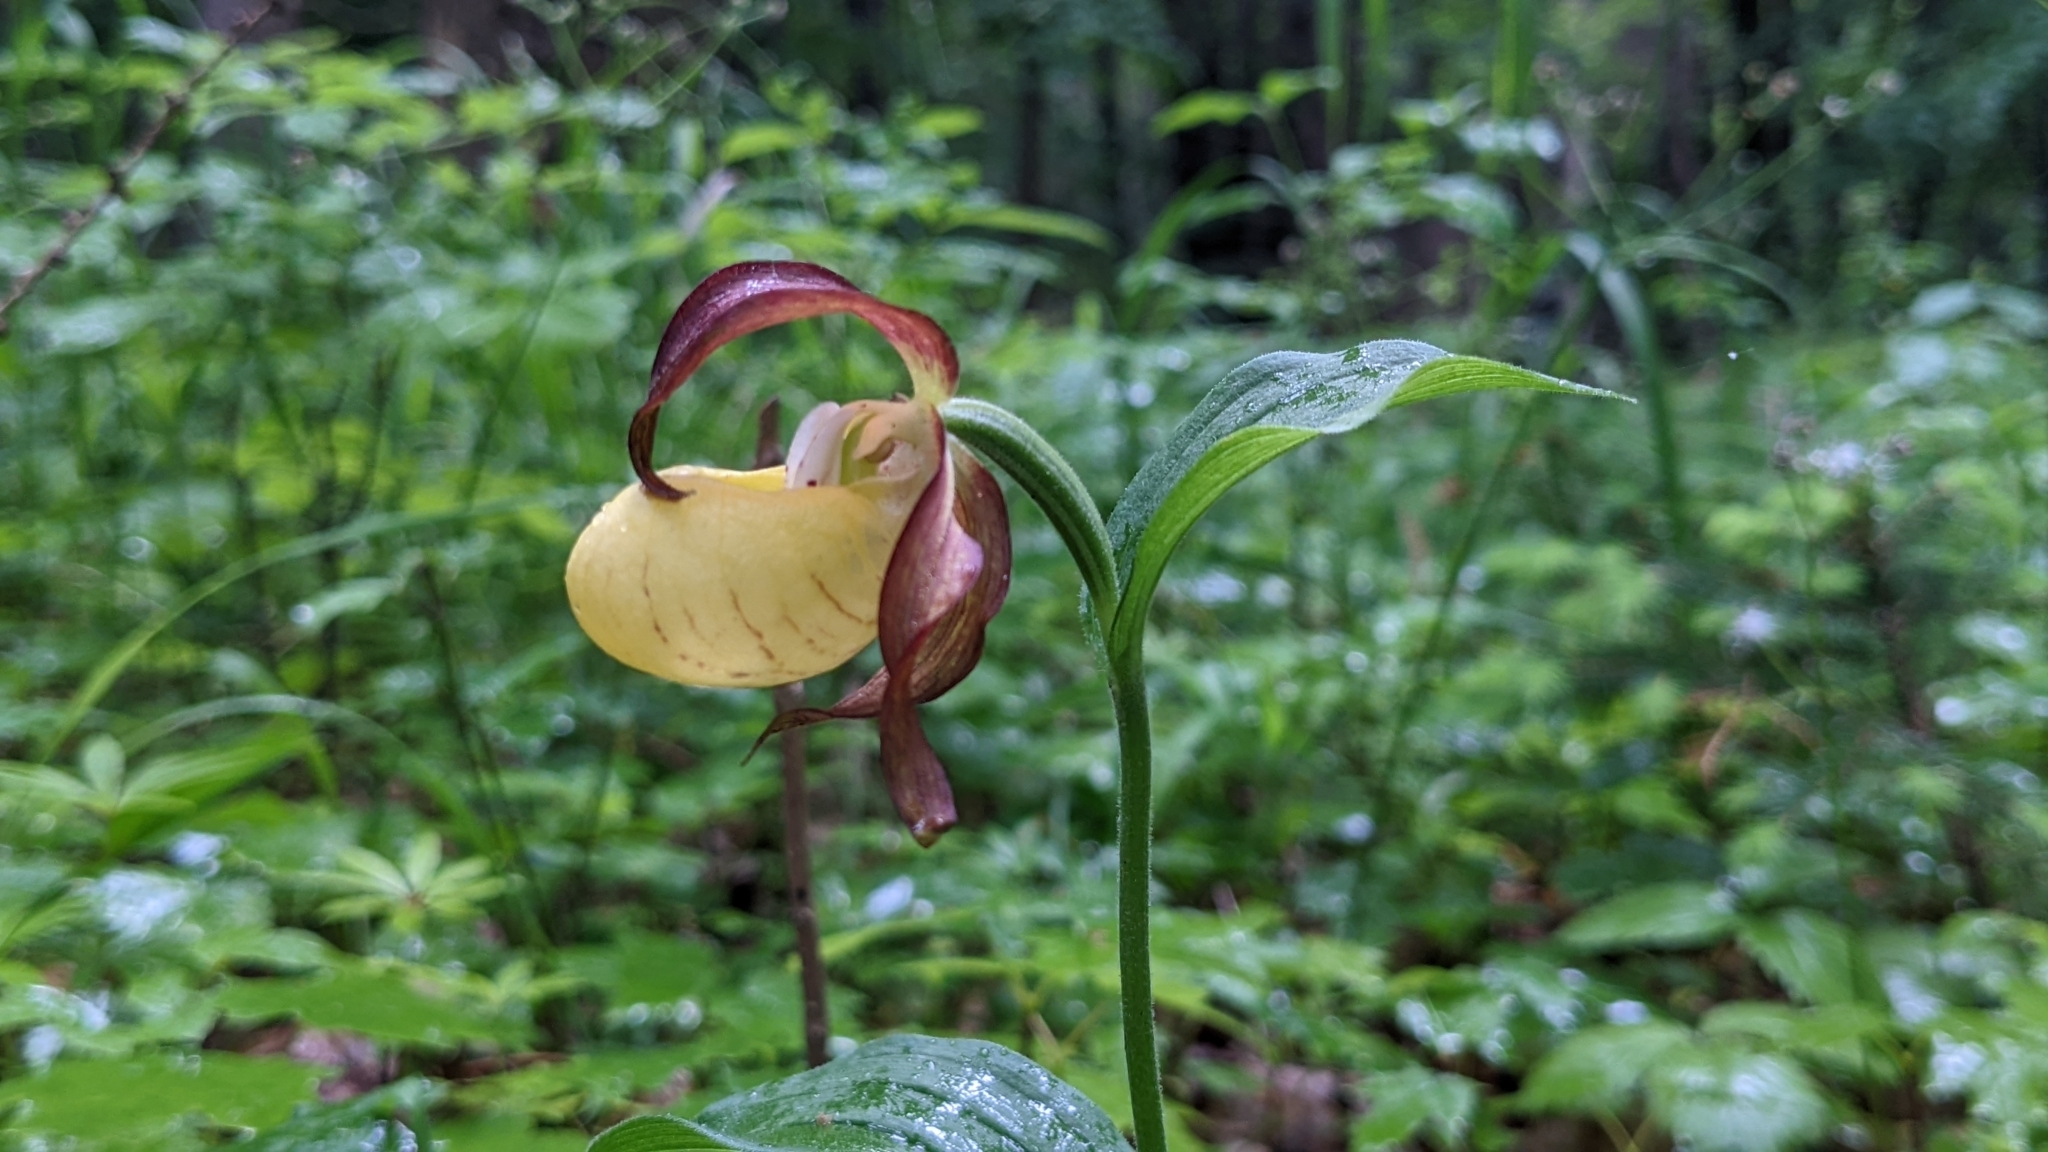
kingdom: Plantae
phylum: Tracheophyta
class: Liliopsida
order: Asparagales
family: Orchidaceae
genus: Cypripedium
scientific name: Cypripedium calceolus
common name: Lady's-slipper
